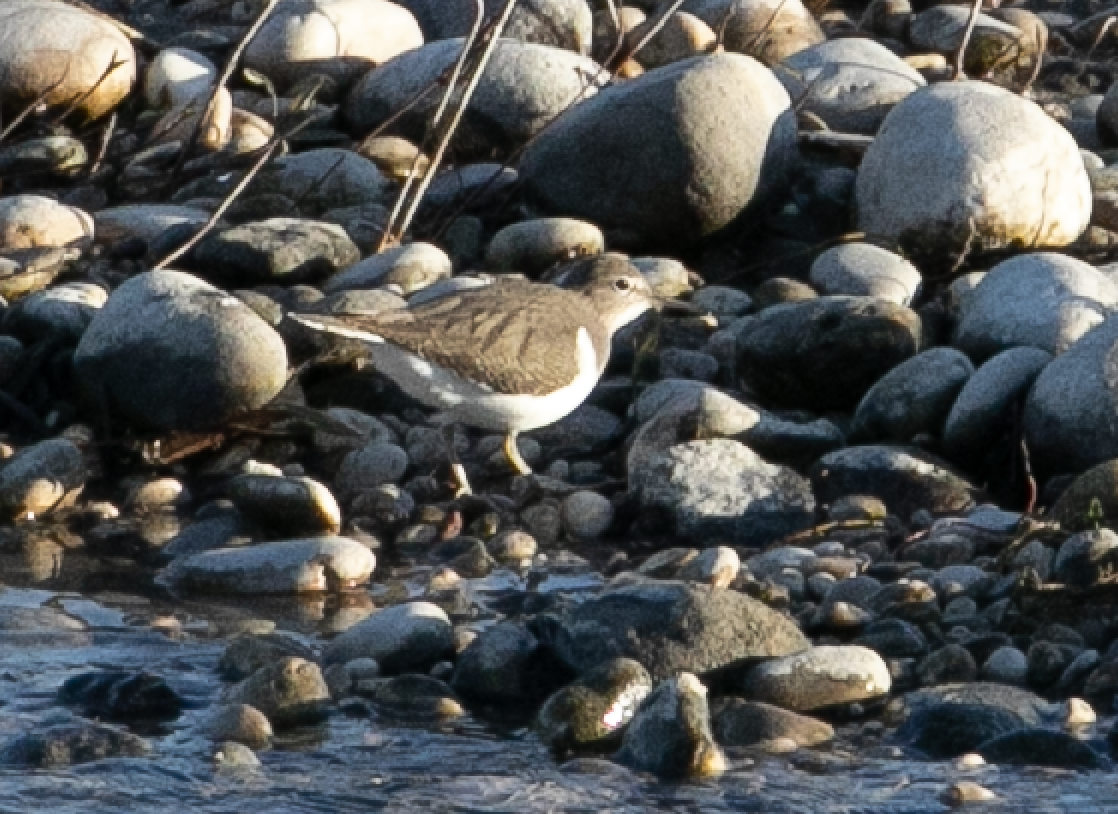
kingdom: Animalia
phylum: Chordata
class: Aves
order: Charadriiformes
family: Scolopacidae
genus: Actitis
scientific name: Actitis hypoleucos
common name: Common sandpiper
